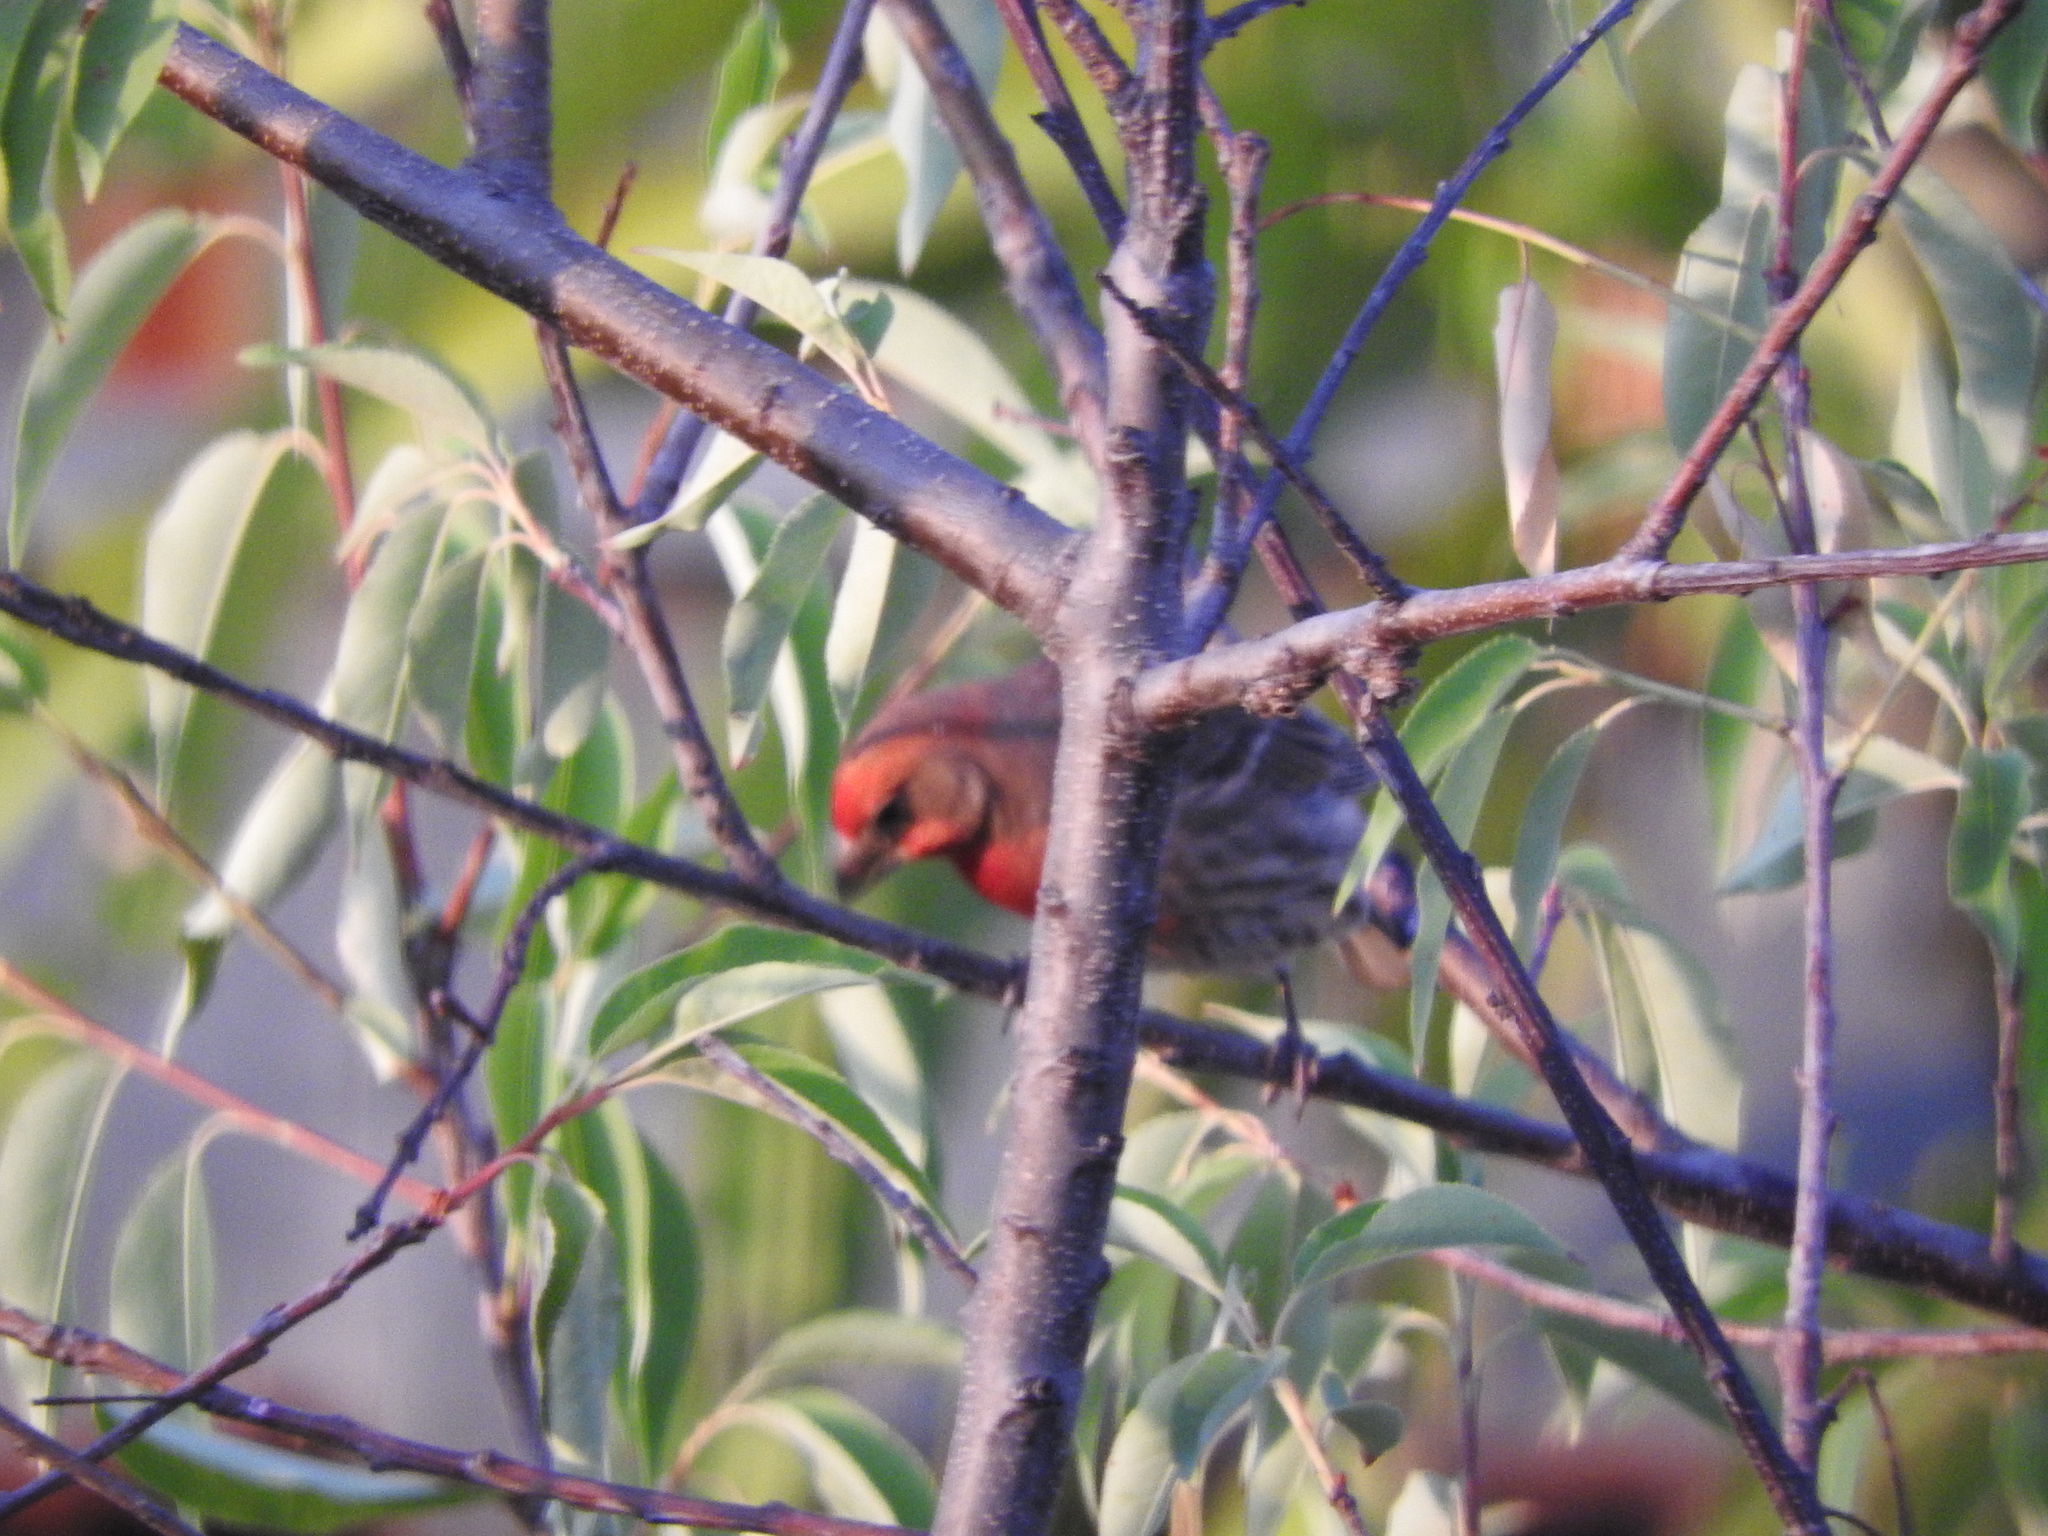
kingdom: Animalia
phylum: Chordata
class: Aves
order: Passeriformes
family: Fringillidae
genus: Haemorhous
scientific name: Haemorhous mexicanus
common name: House finch
